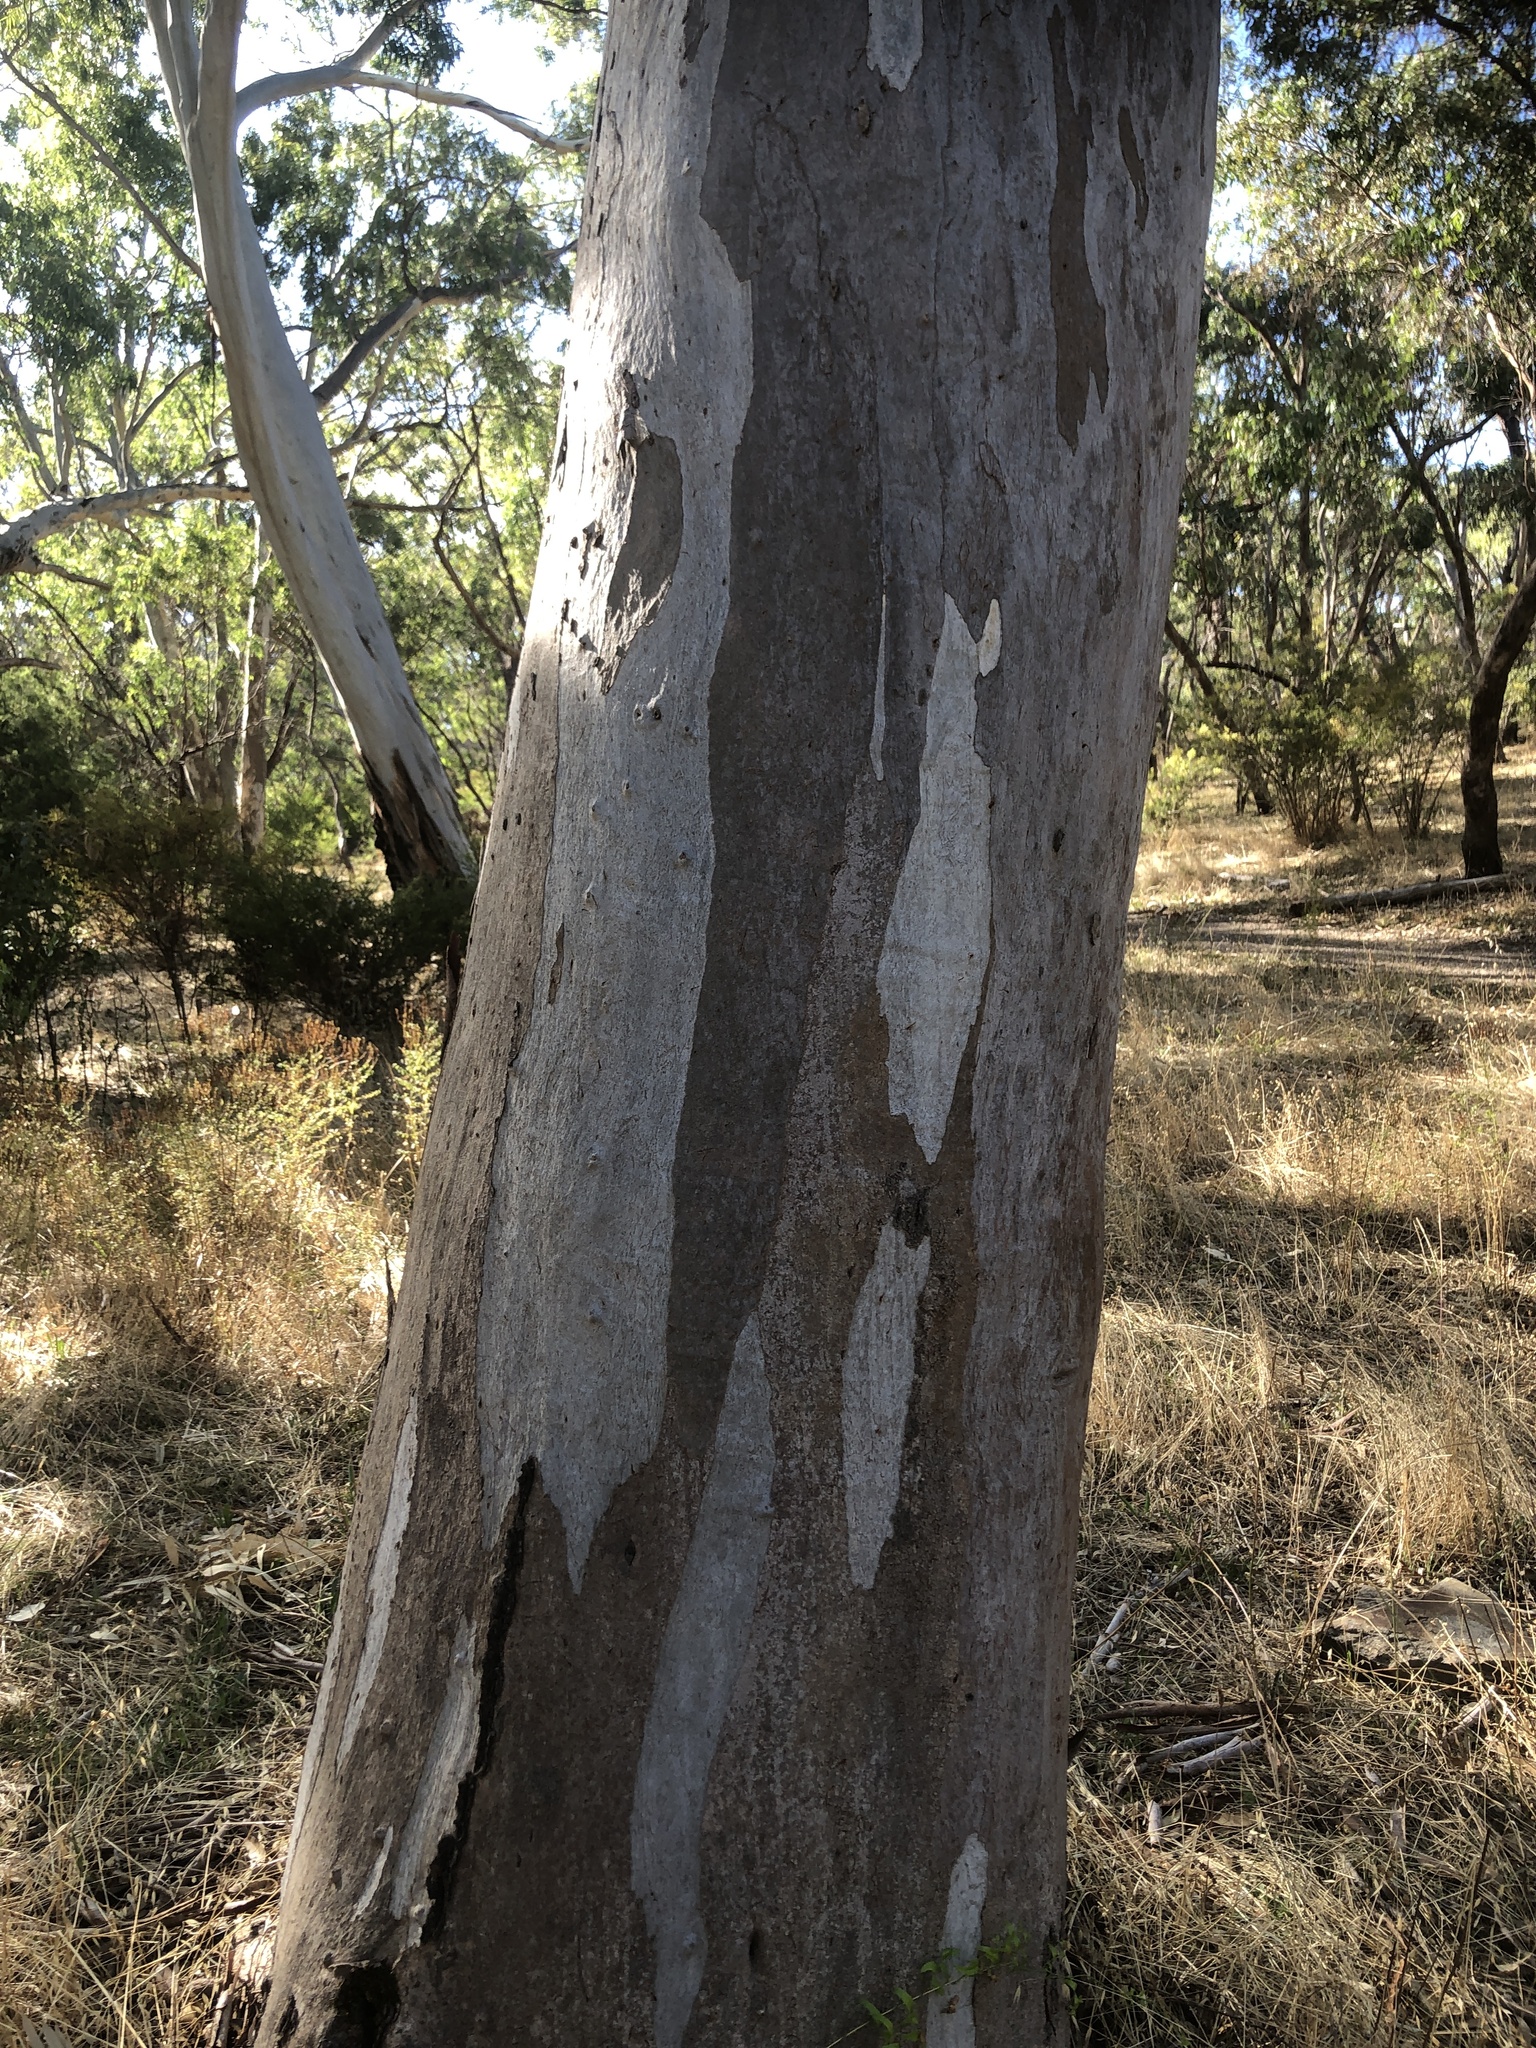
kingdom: Plantae
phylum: Tracheophyta
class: Magnoliopsida
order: Myrtales
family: Myrtaceae
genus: Eucalyptus
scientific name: Eucalyptus camaldulensis
